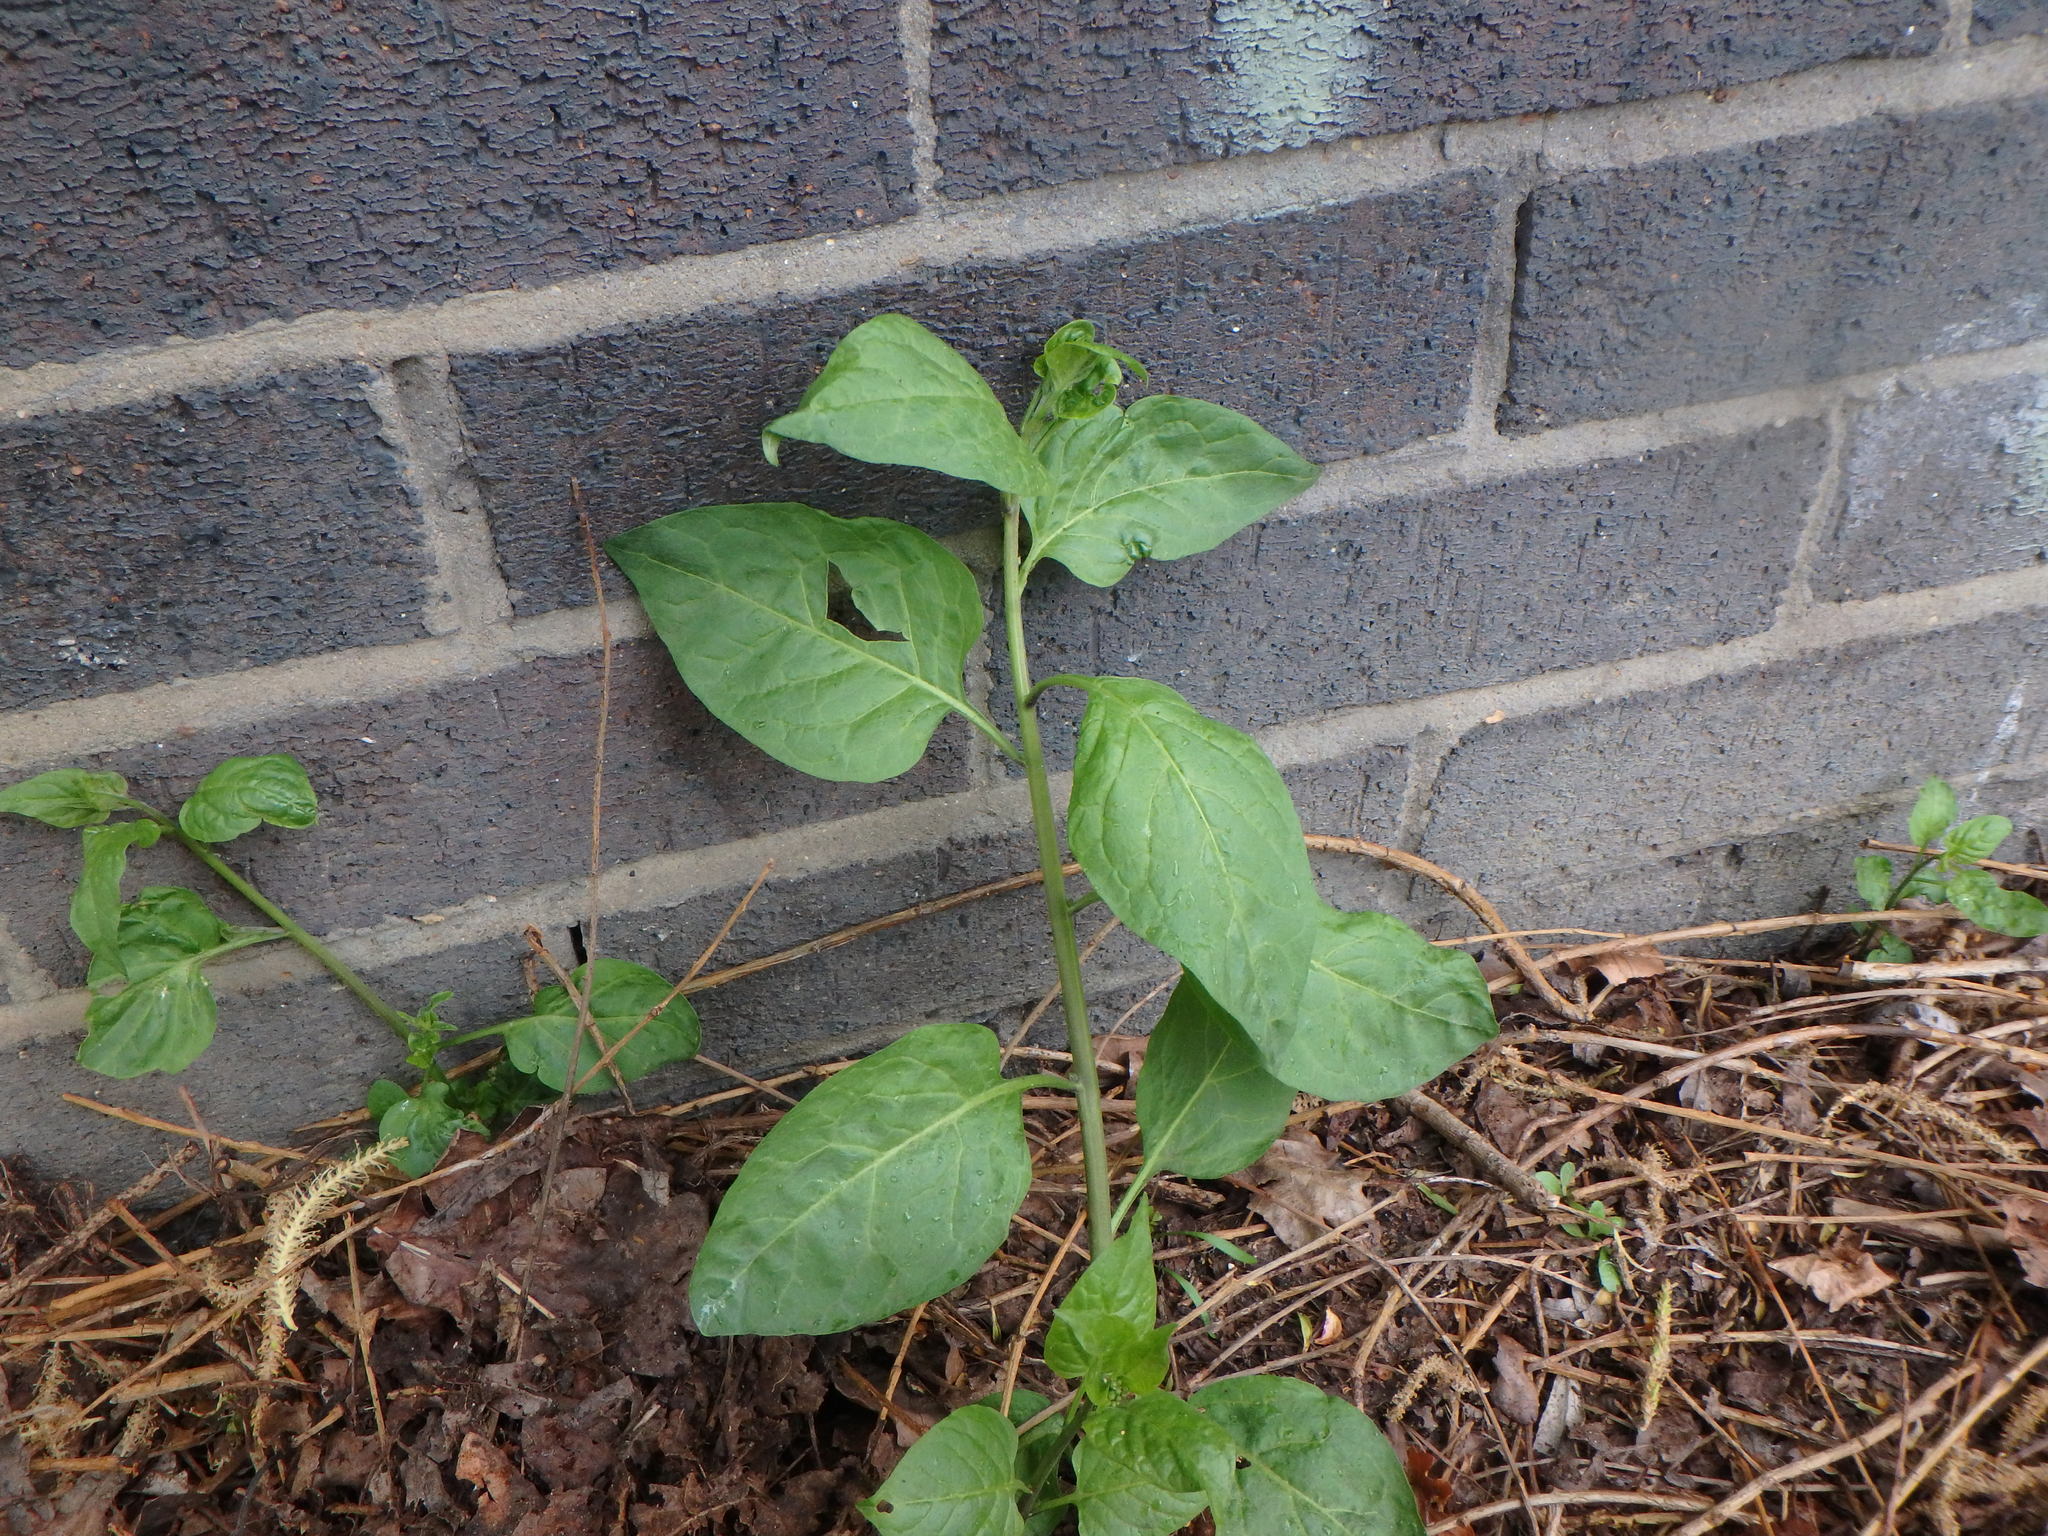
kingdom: Plantae
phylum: Tracheophyta
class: Magnoliopsida
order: Solanales
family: Solanaceae
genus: Solanum
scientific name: Solanum dulcamara
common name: Climbing nightshade
